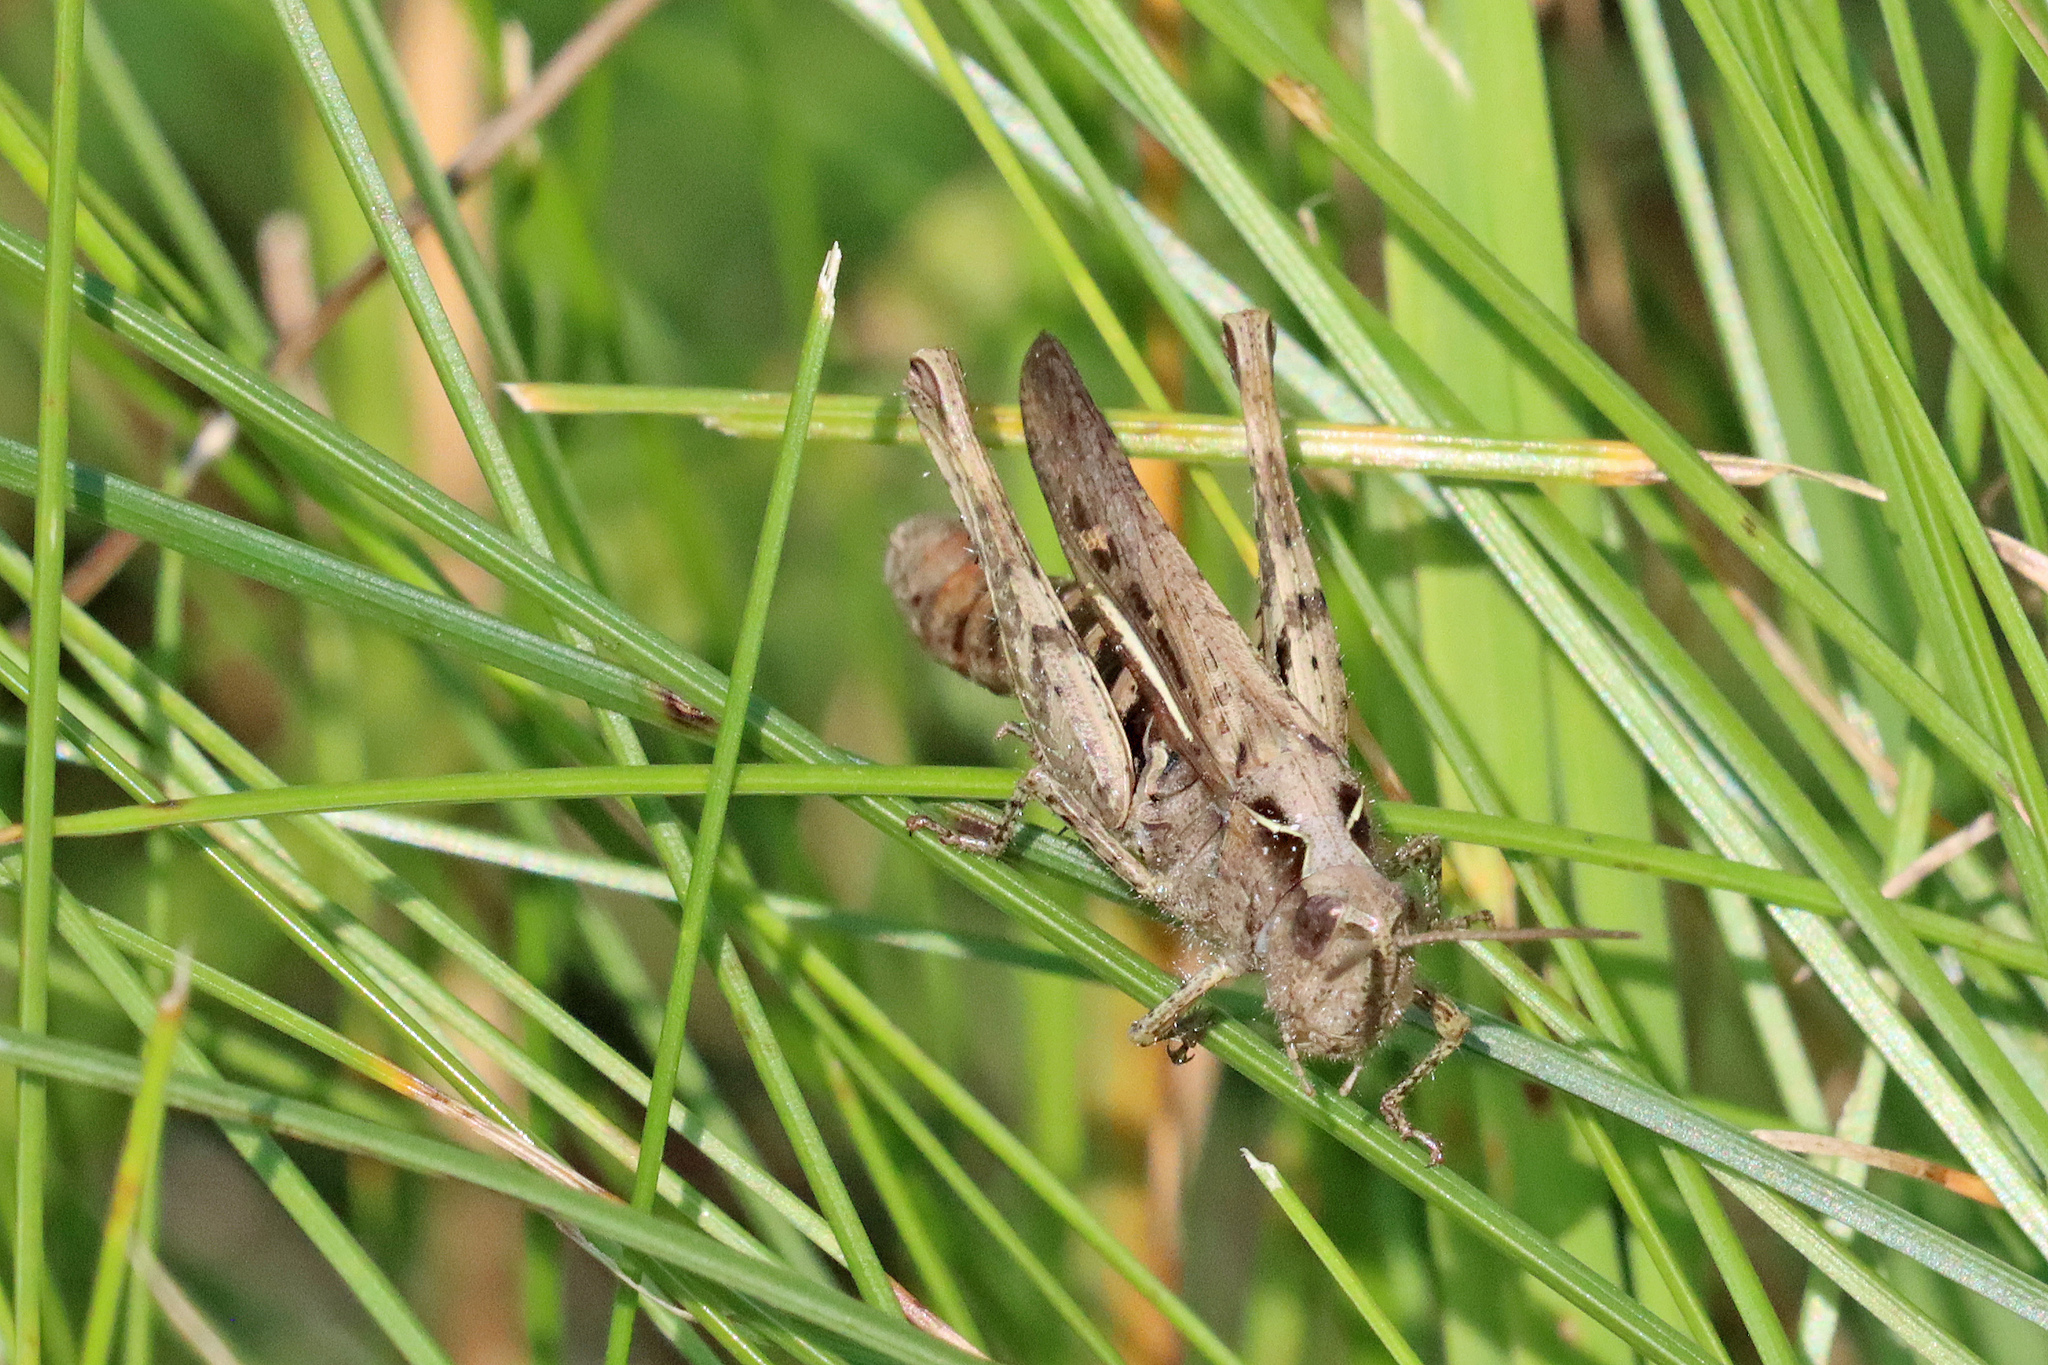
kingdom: Animalia
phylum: Arthropoda
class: Insecta
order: Orthoptera
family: Acrididae
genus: Chorthippus
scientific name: Chorthippus brunneus
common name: Field grasshopper
